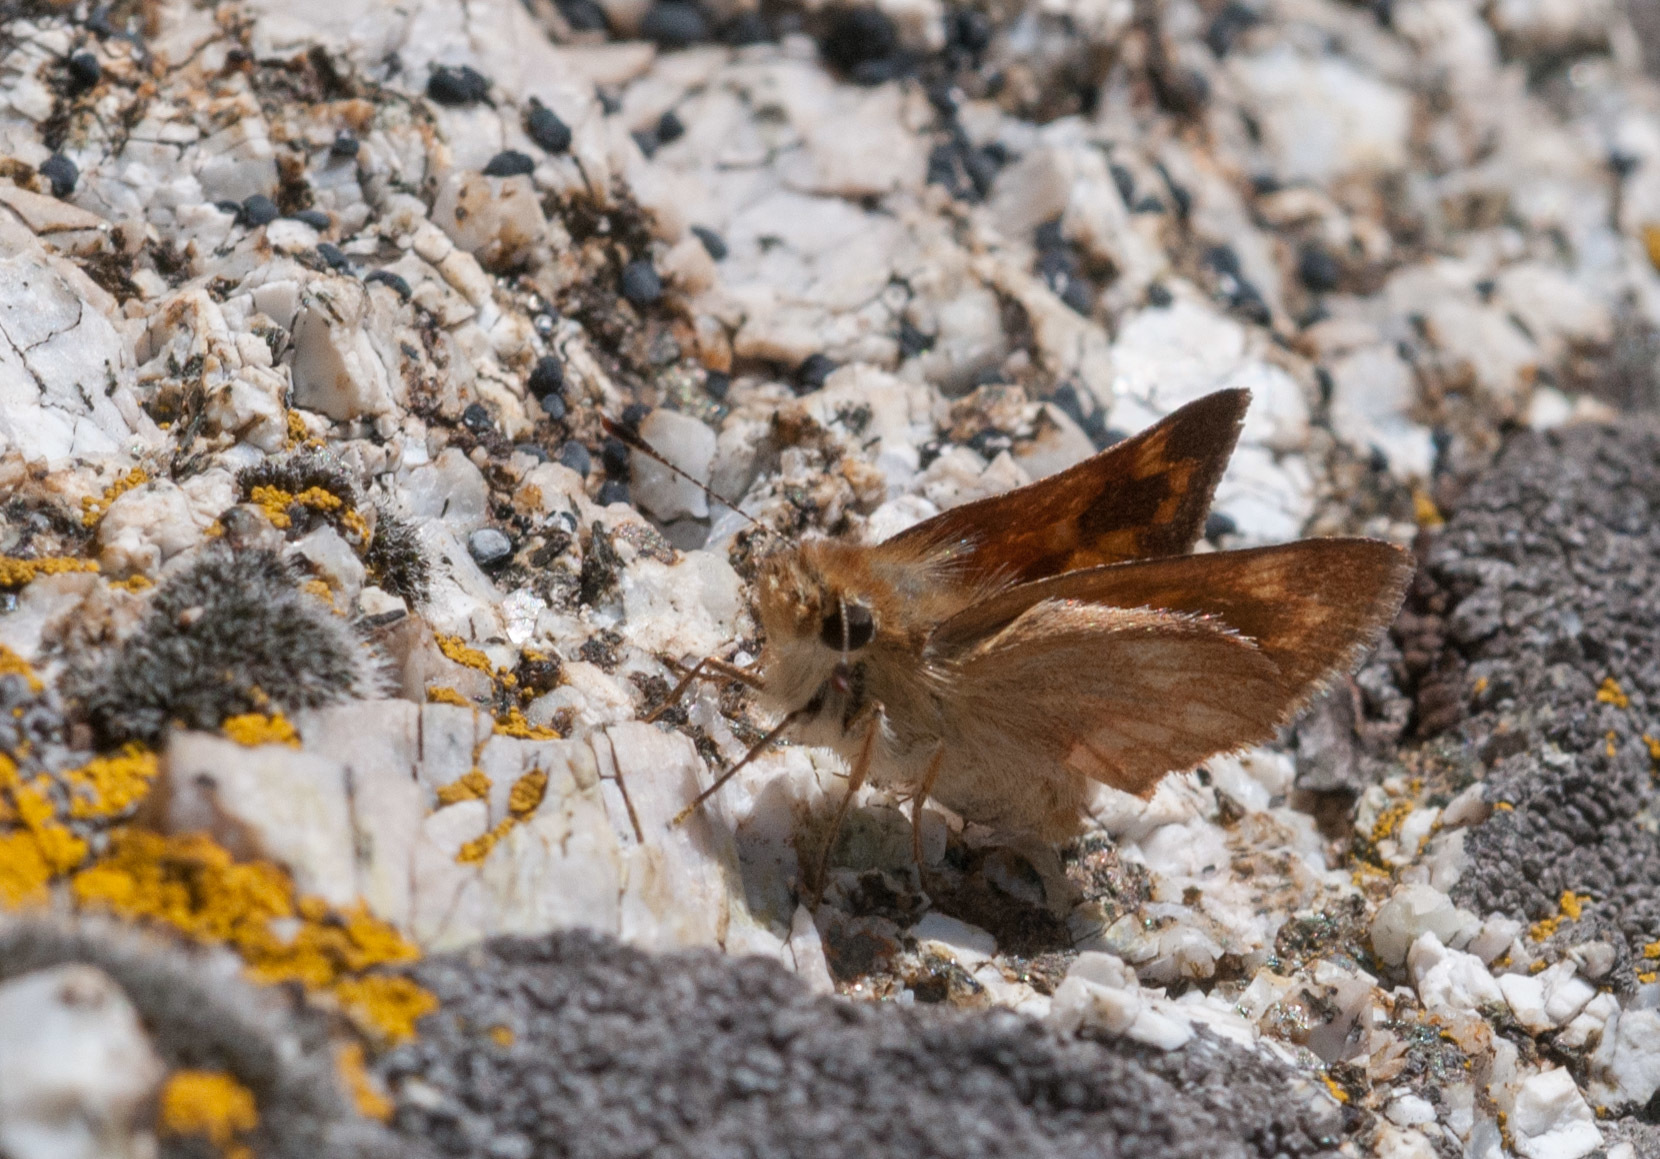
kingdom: Animalia
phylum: Arthropoda
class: Insecta
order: Lepidoptera
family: Hesperiidae
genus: Ochlodes
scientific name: Ochlodes sylvanoides
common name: Woodland skipper
